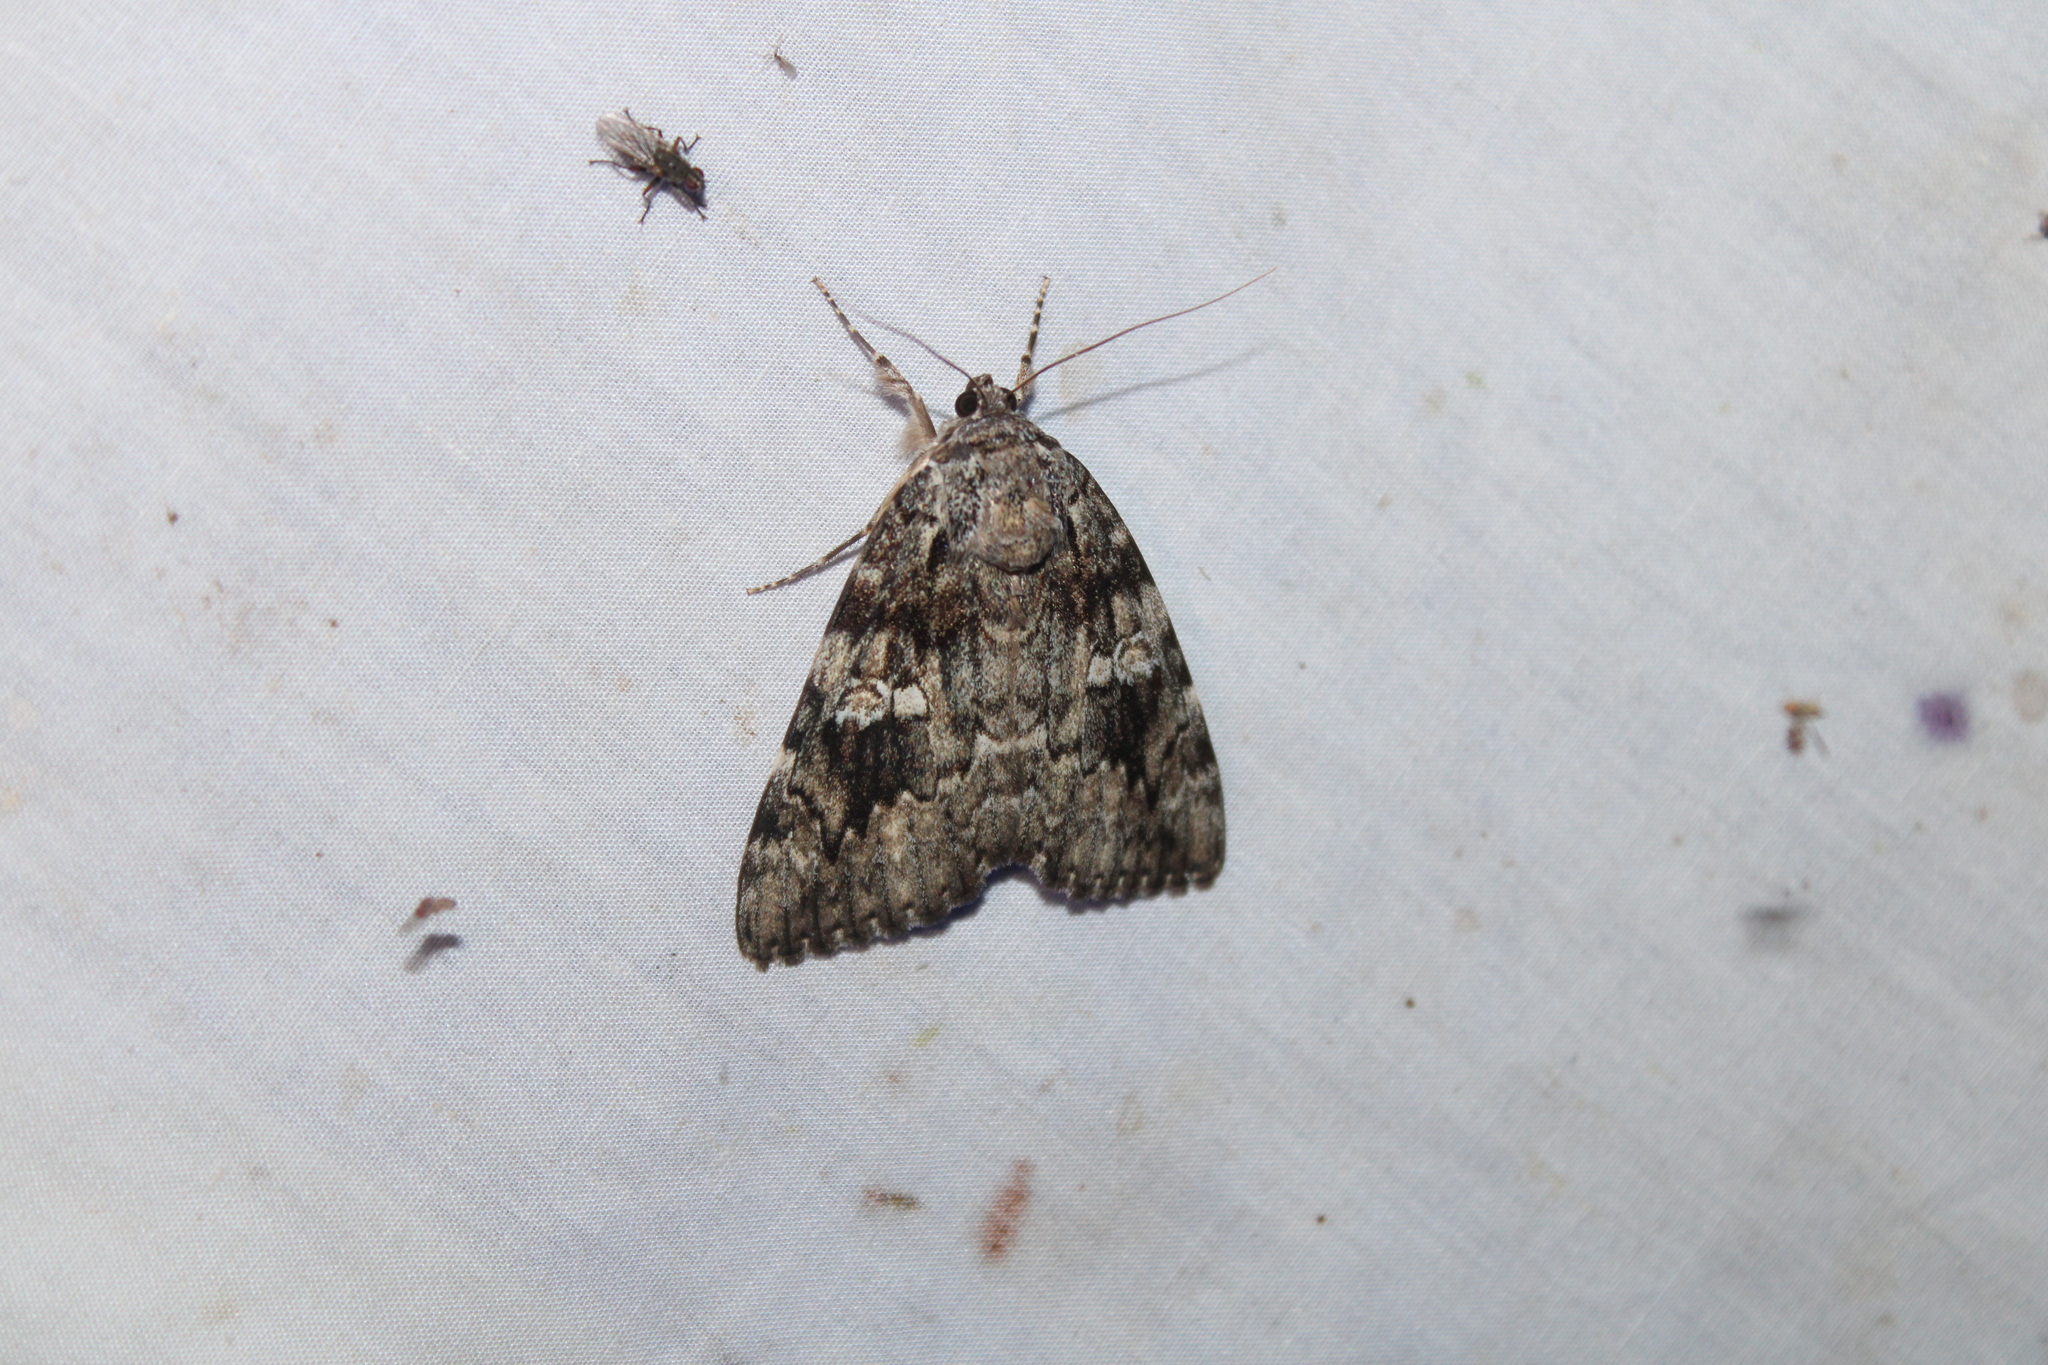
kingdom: Animalia
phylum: Arthropoda
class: Insecta
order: Lepidoptera
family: Erebidae
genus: Catocala
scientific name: Catocala ilia
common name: Ilia underwing
